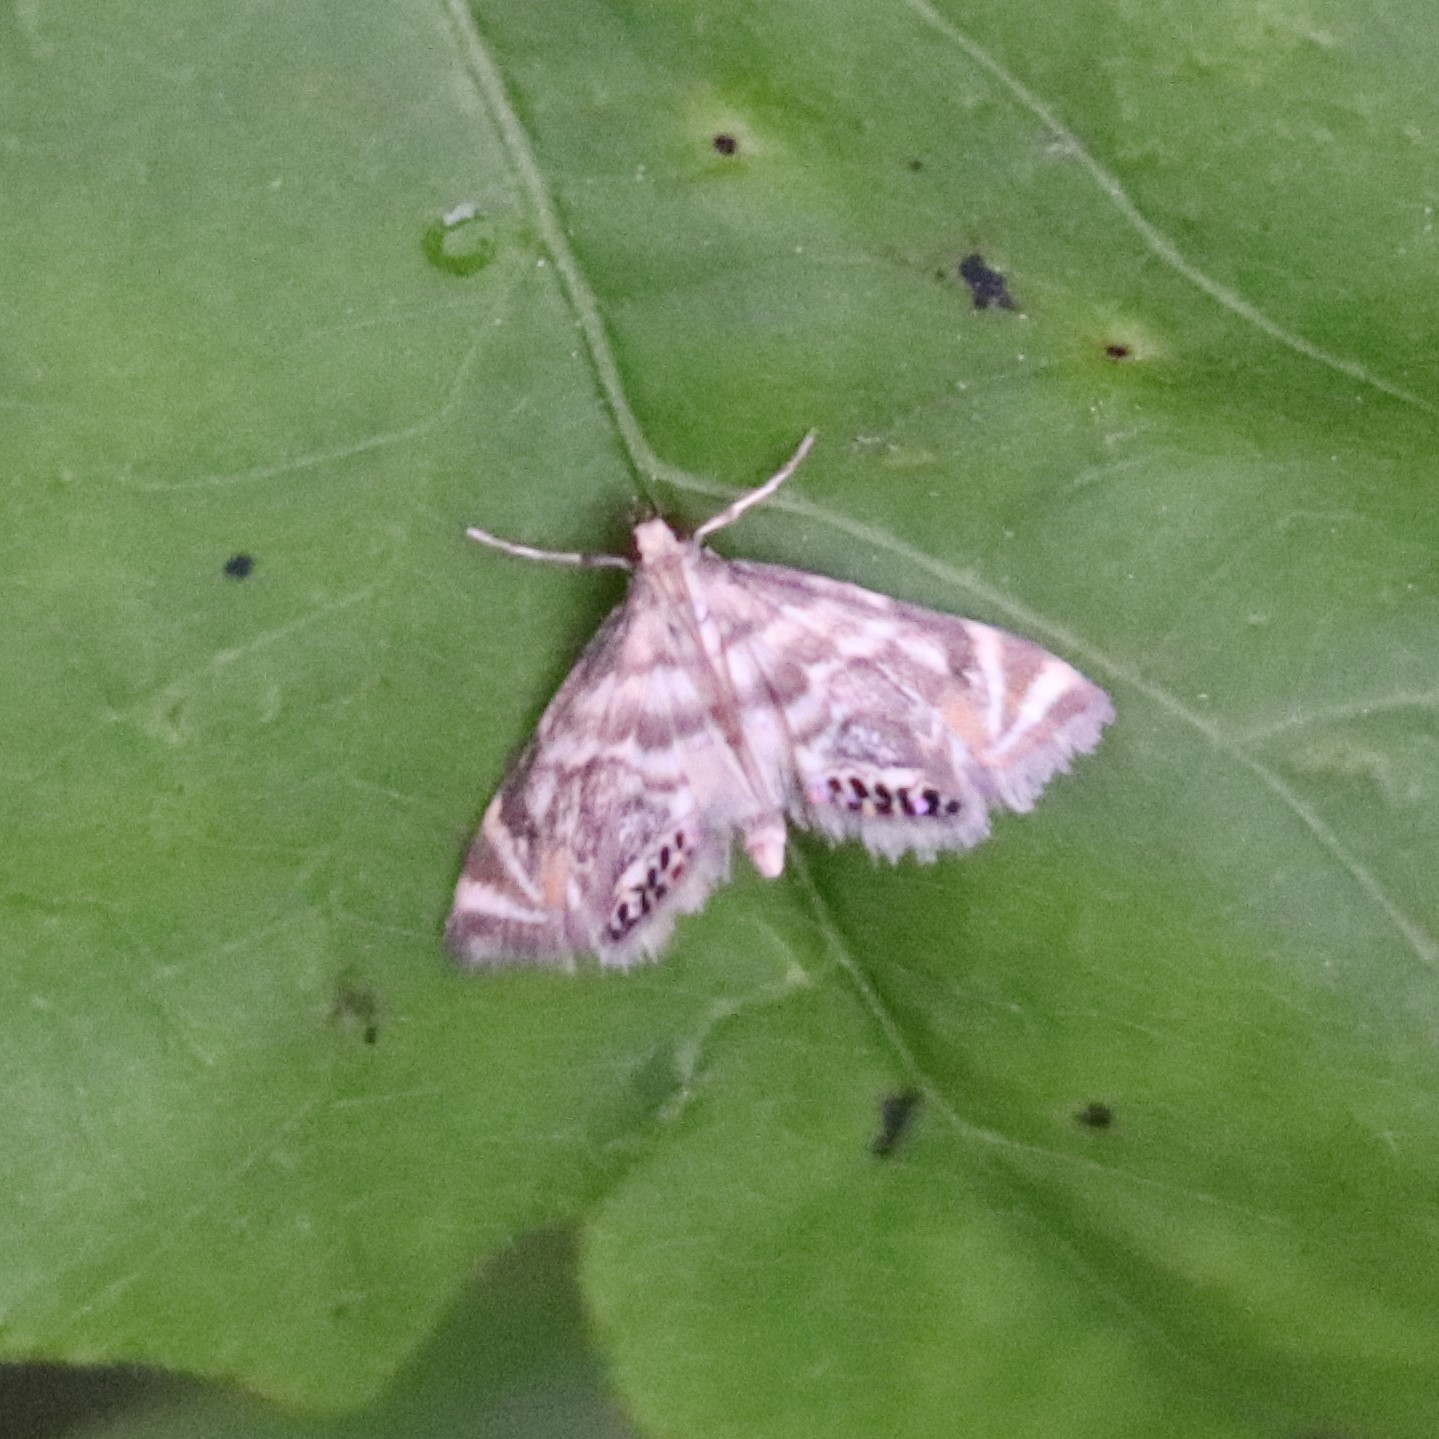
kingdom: Animalia
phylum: Arthropoda
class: Insecta
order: Lepidoptera
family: Crambidae
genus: Petrophila
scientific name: Petrophila canadensis
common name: Canadian petrophila
